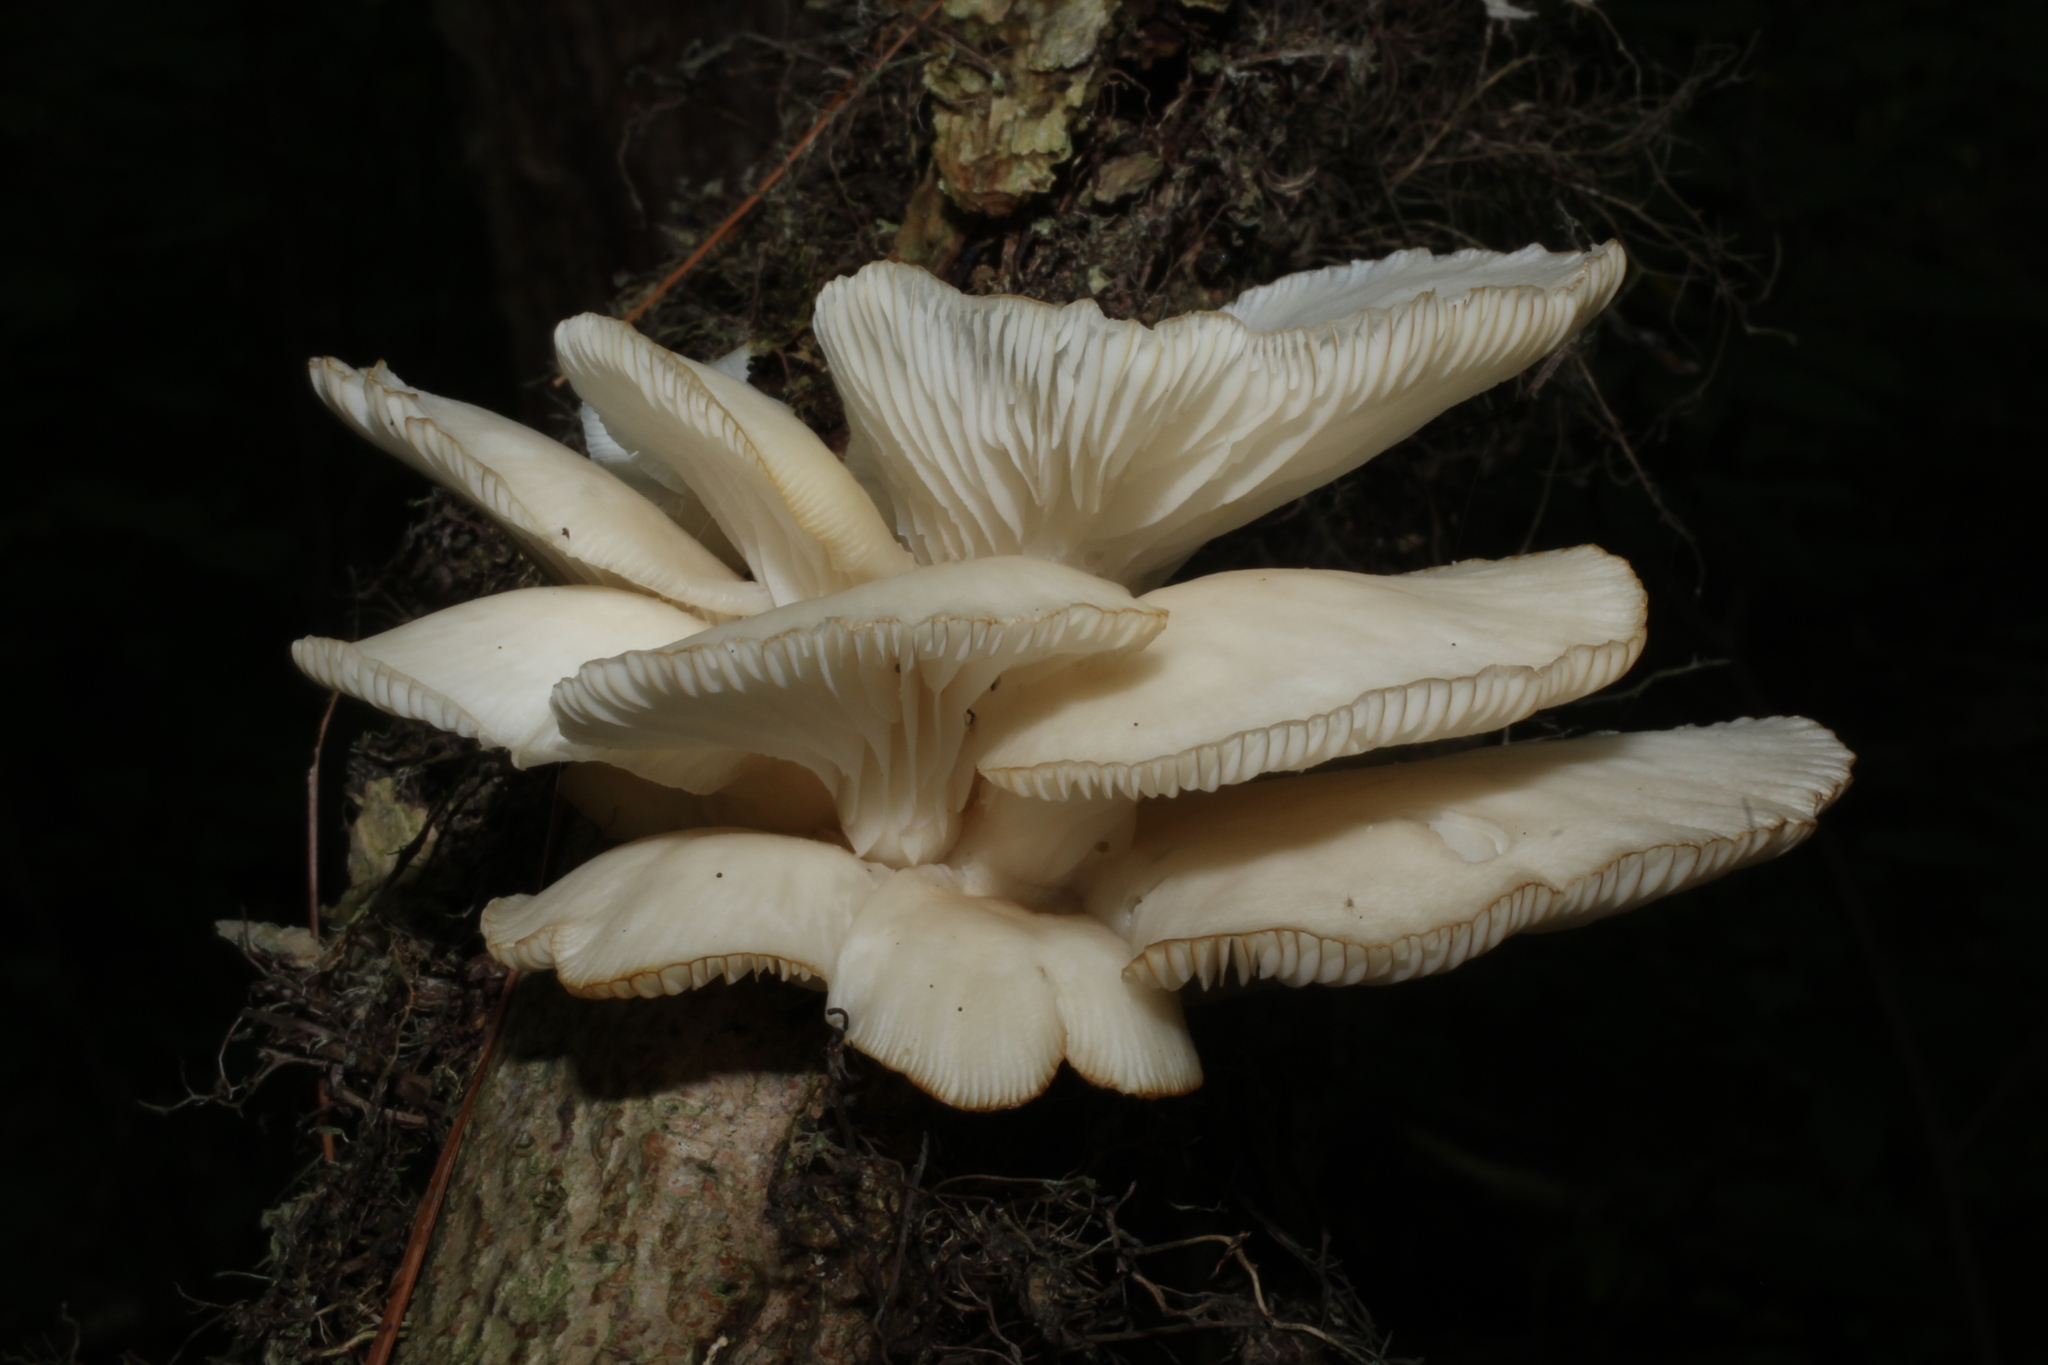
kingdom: Fungi
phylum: Basidiomycota
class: Agaricomycetes
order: Agaricales
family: Pleurotaceae
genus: Pleurotus
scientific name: Pleurotus pulmonarius
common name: Pale oyster
